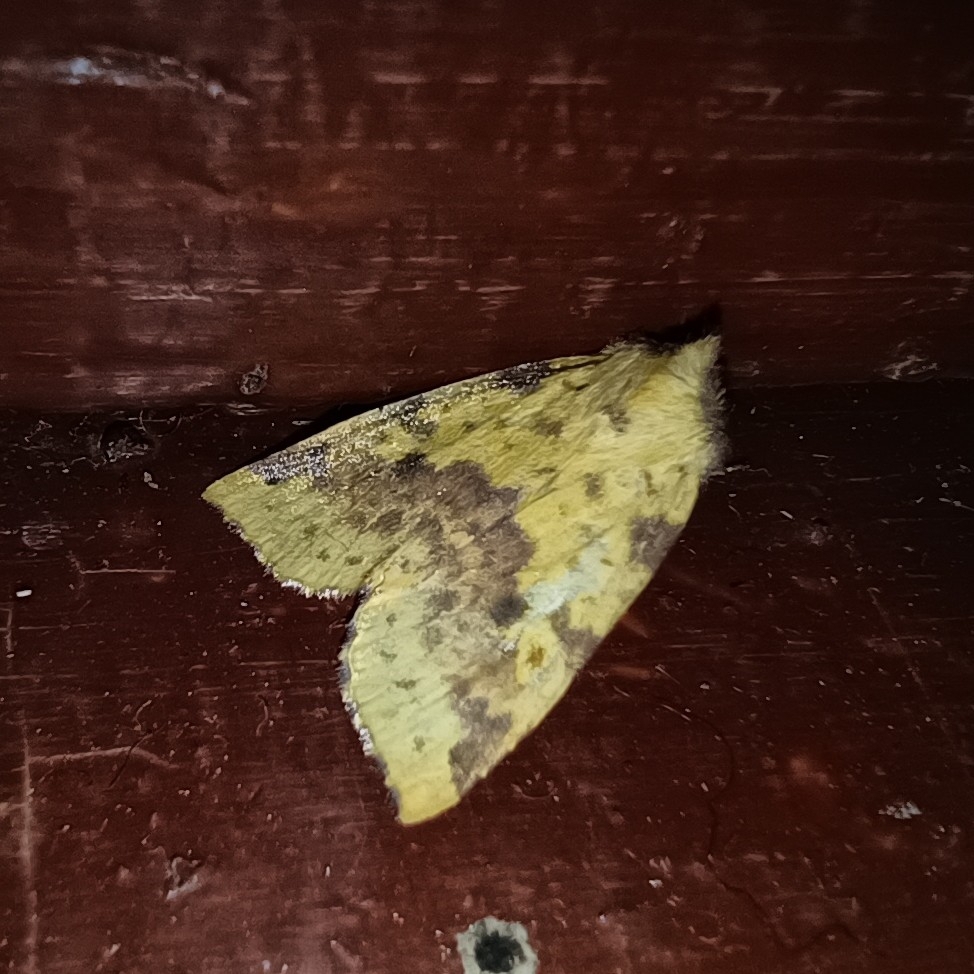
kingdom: Animalia
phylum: Arthropoda
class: Insecta
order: Lepidoptera
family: Noctuidae
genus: Xanthia
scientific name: Xanthia togata
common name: Pink-barred sallow
